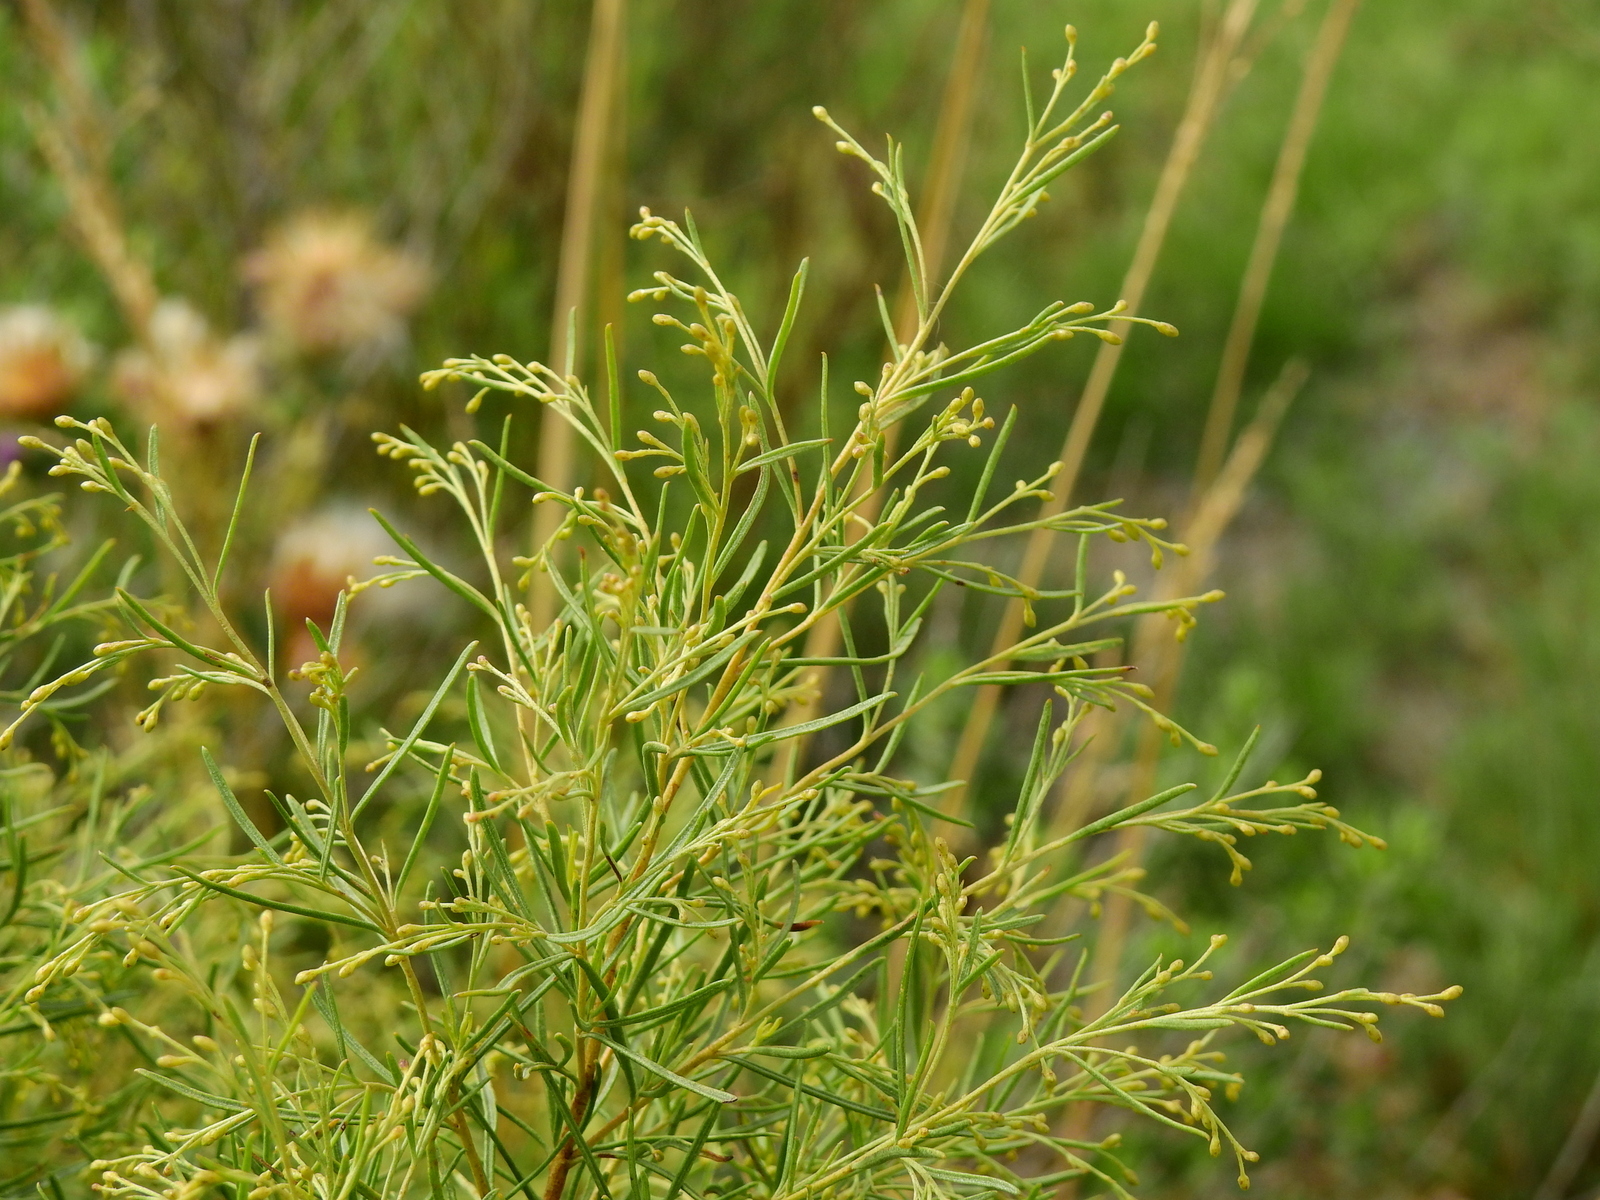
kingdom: Plantae
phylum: Tracheophyta
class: Magnoliopsida
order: Asterales
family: Asteraceae
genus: Acanthostyles
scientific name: Acanthostyles buniifolius
